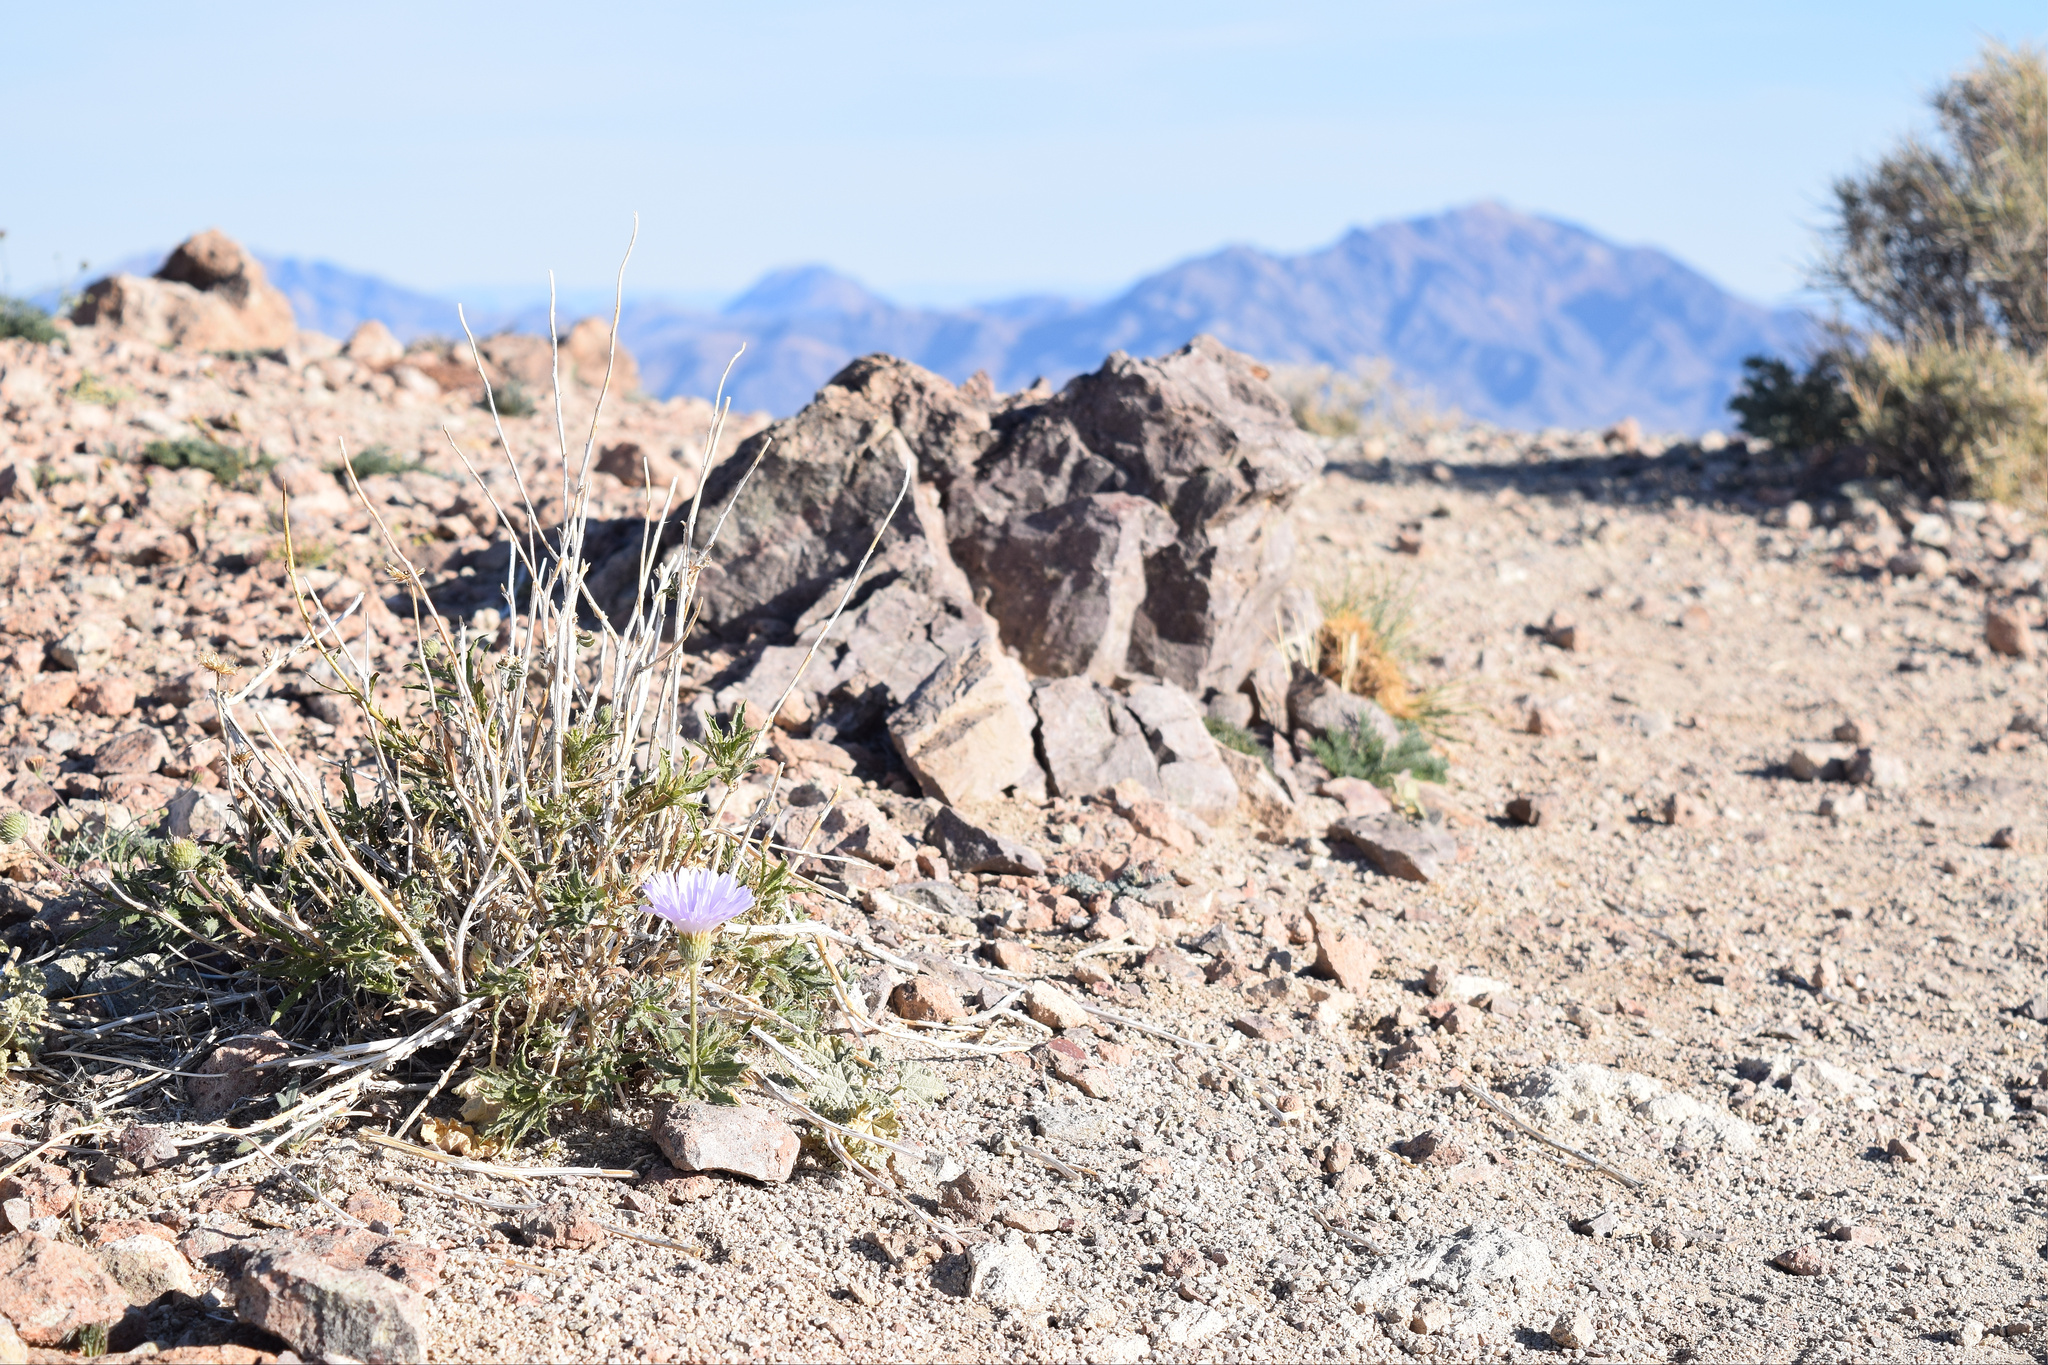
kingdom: Plantae
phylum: Tracheophyta
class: Magnoliopsida
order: Asterales
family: Asteraceae
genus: Xylorhiza
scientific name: Xylorhiza tortifolia
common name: Hurt-leaf woody-aster
